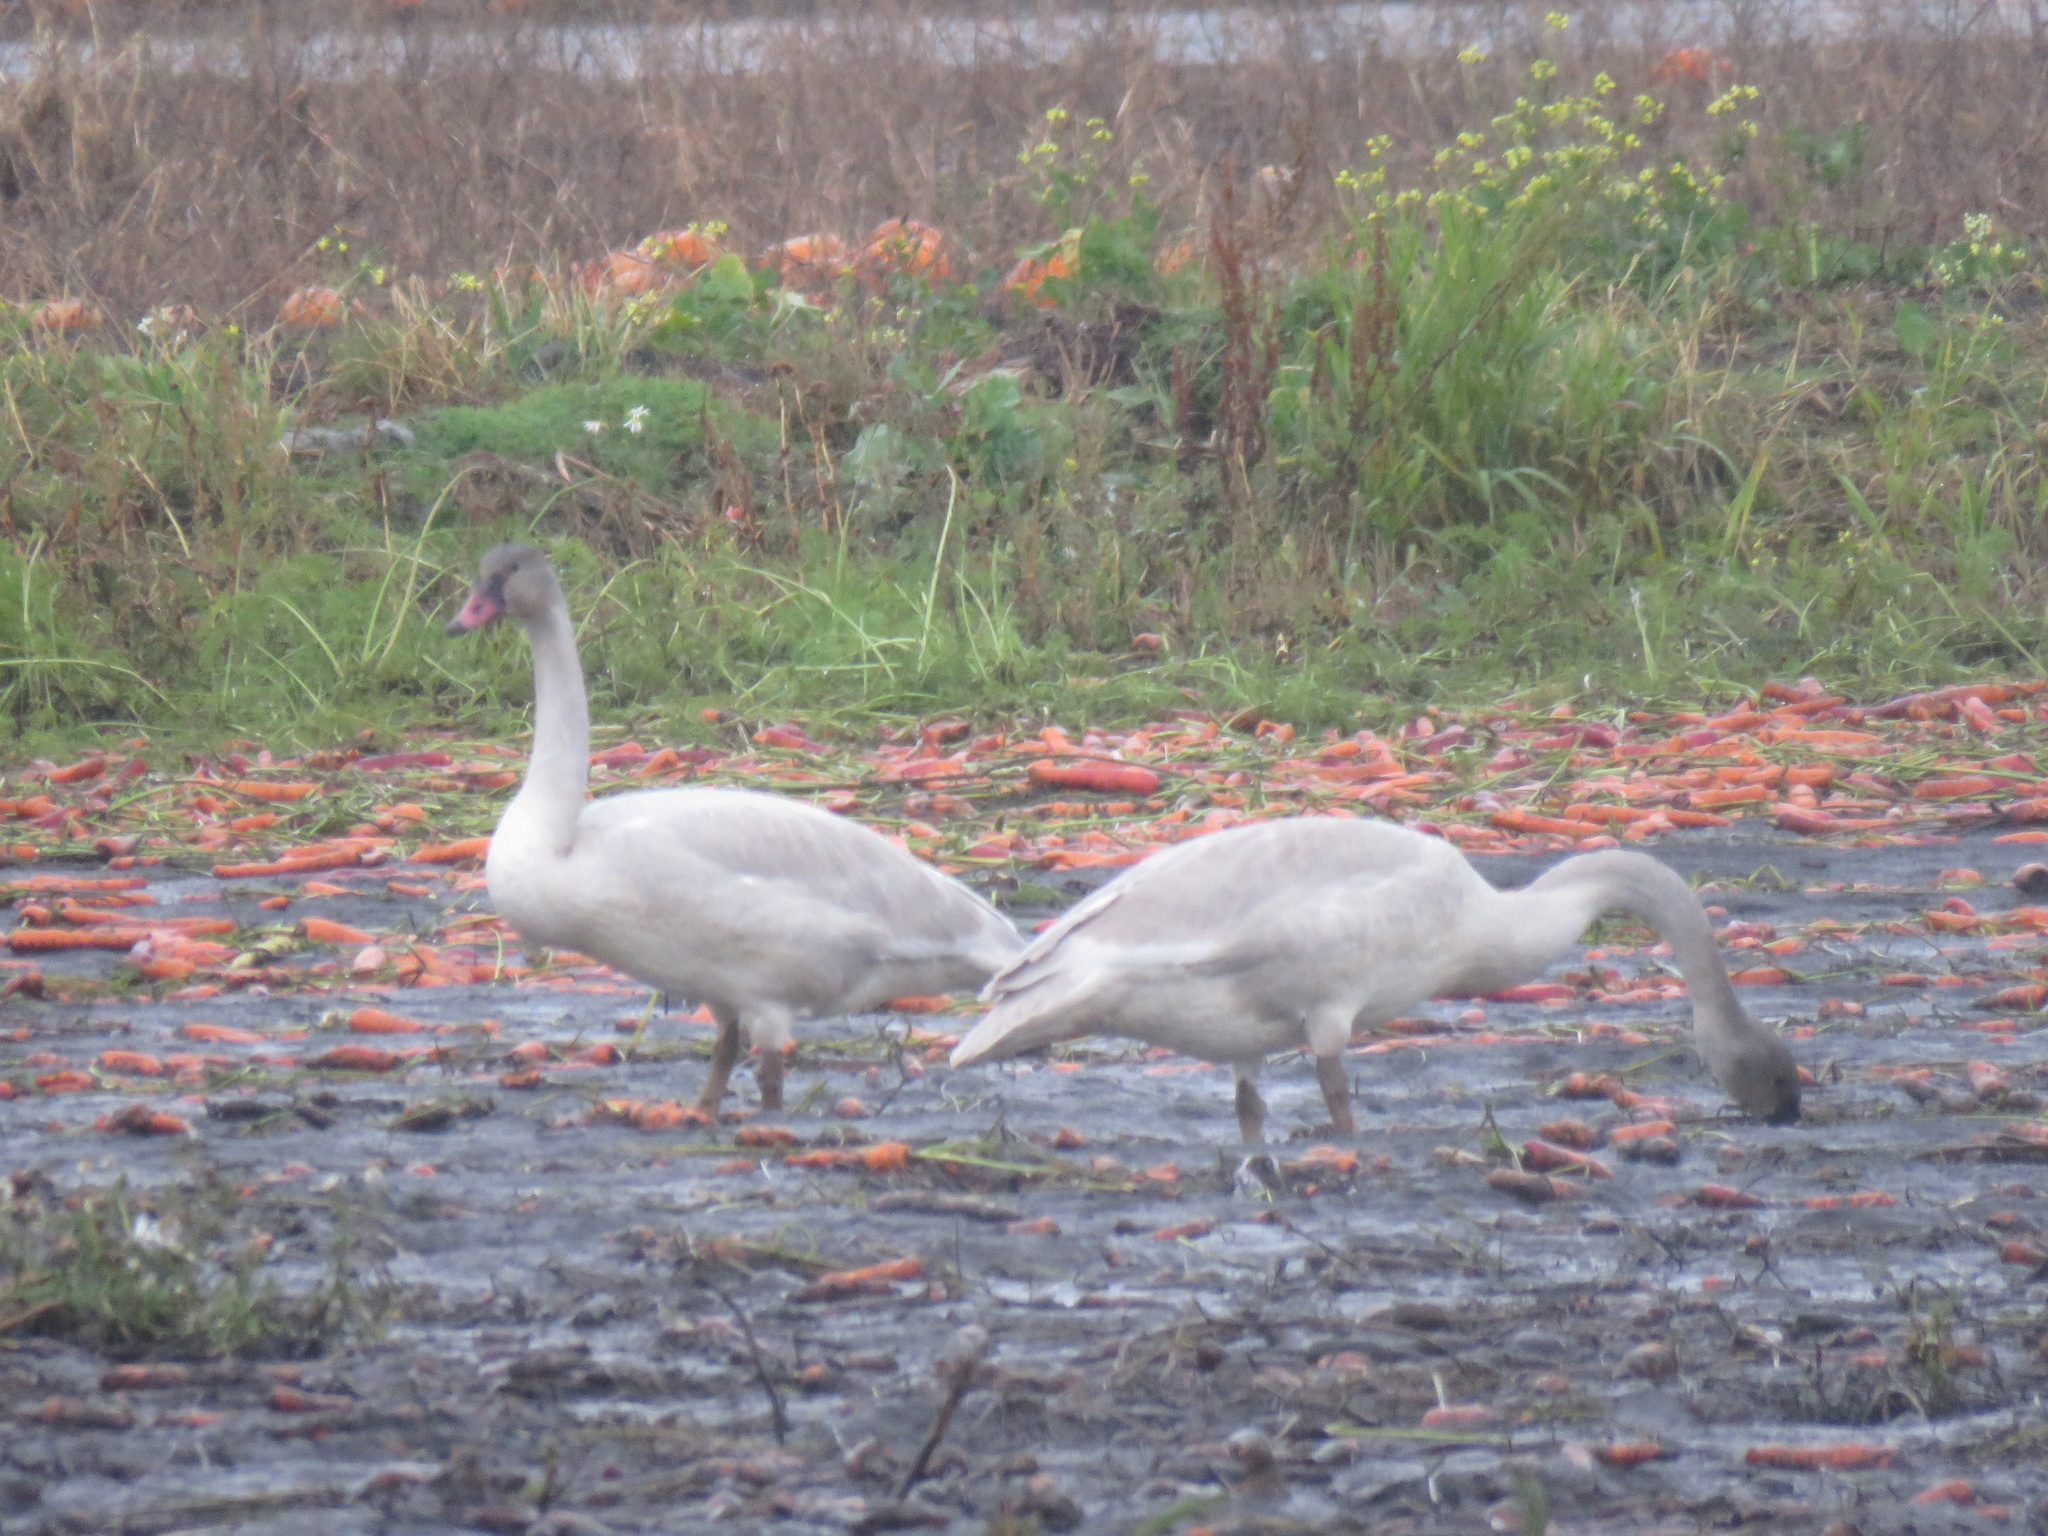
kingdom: Animalia
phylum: Chordata
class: Aves
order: Anseriformes
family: Anatidae
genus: Cygnus
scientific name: Cygnus buccinator
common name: Trumpeter swan
